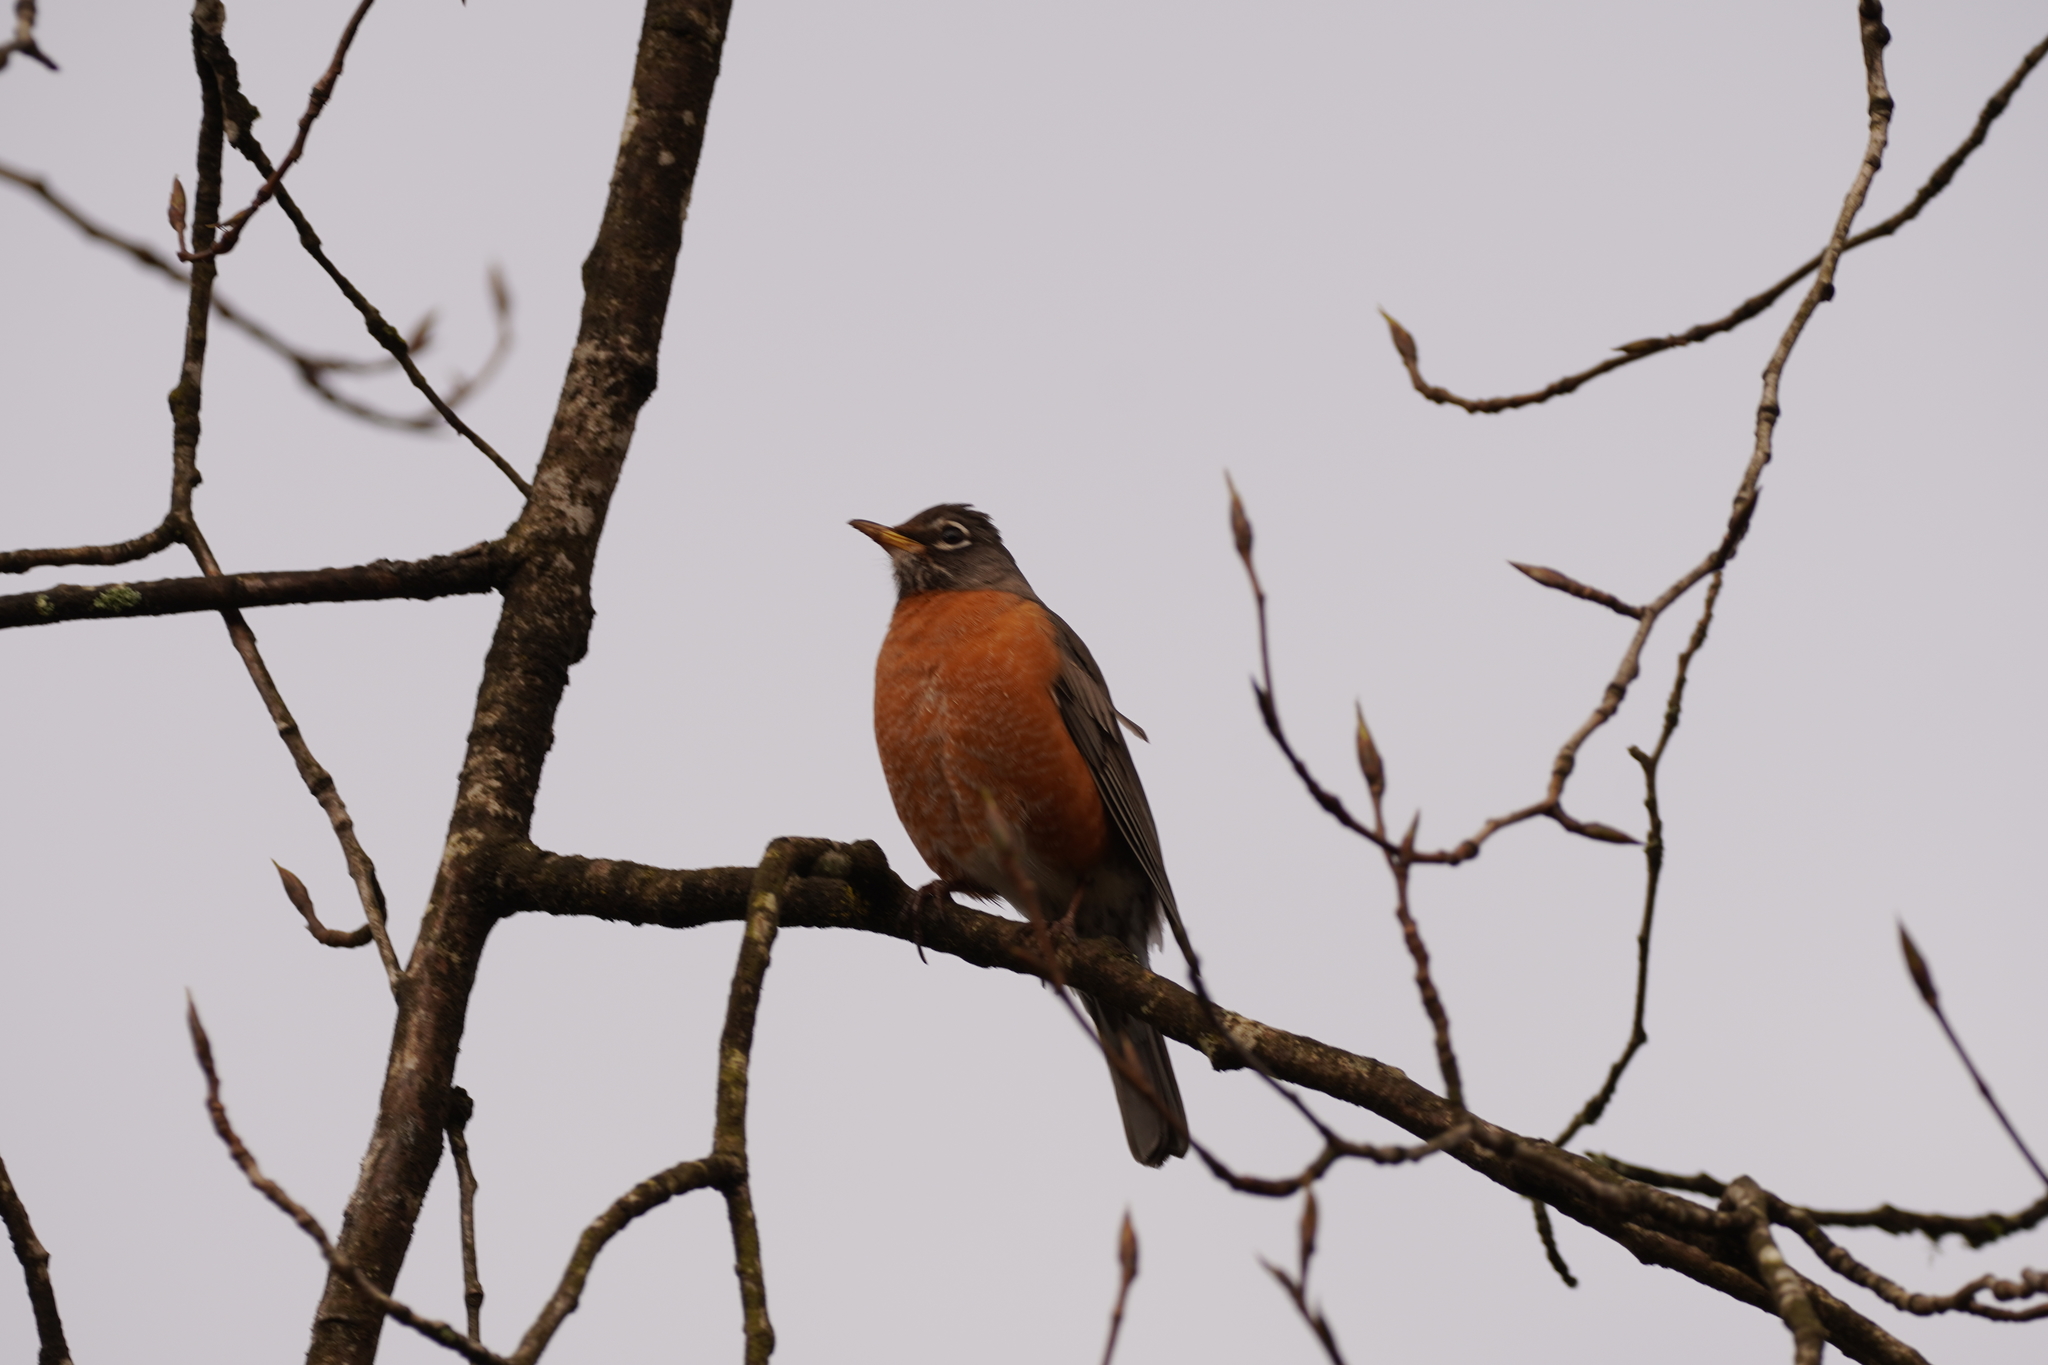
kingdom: Animalia
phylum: Chordata
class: Aves
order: Passeriformes
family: Turdidae
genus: Turdus
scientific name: Turdus migratorius
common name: American robin
